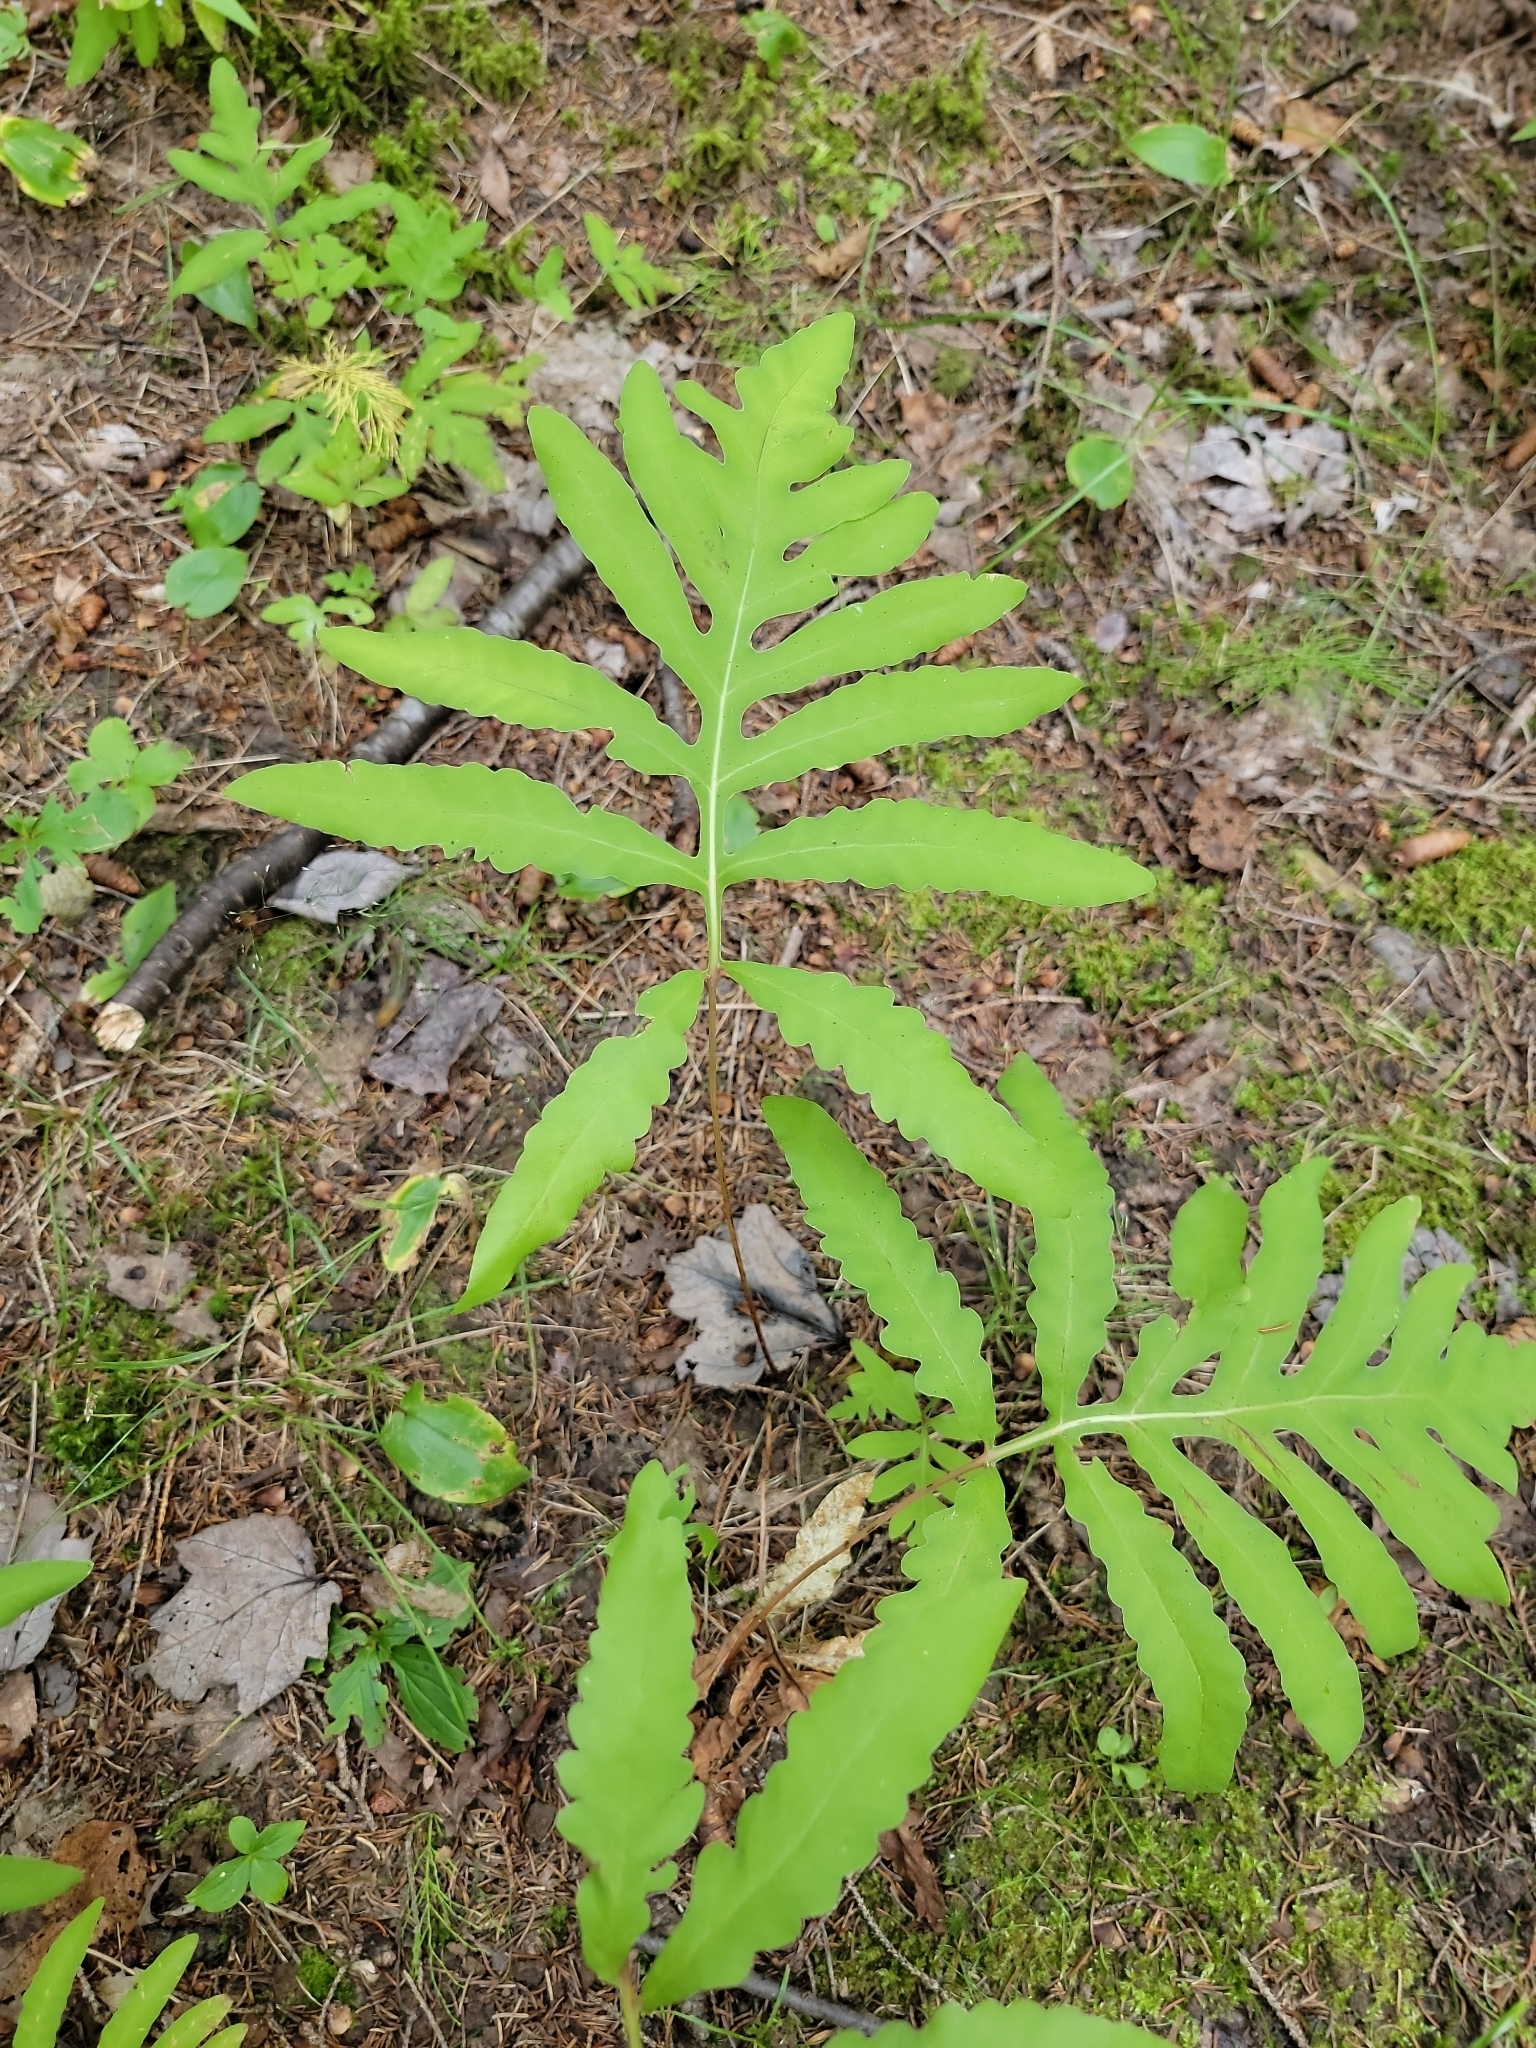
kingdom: Plantae
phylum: Tracheophyta
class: Polypodiopsida
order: Polypodiales
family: Onocleaceae
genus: Onoclea
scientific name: Onoclea sensibilis
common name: Sensitive fern
